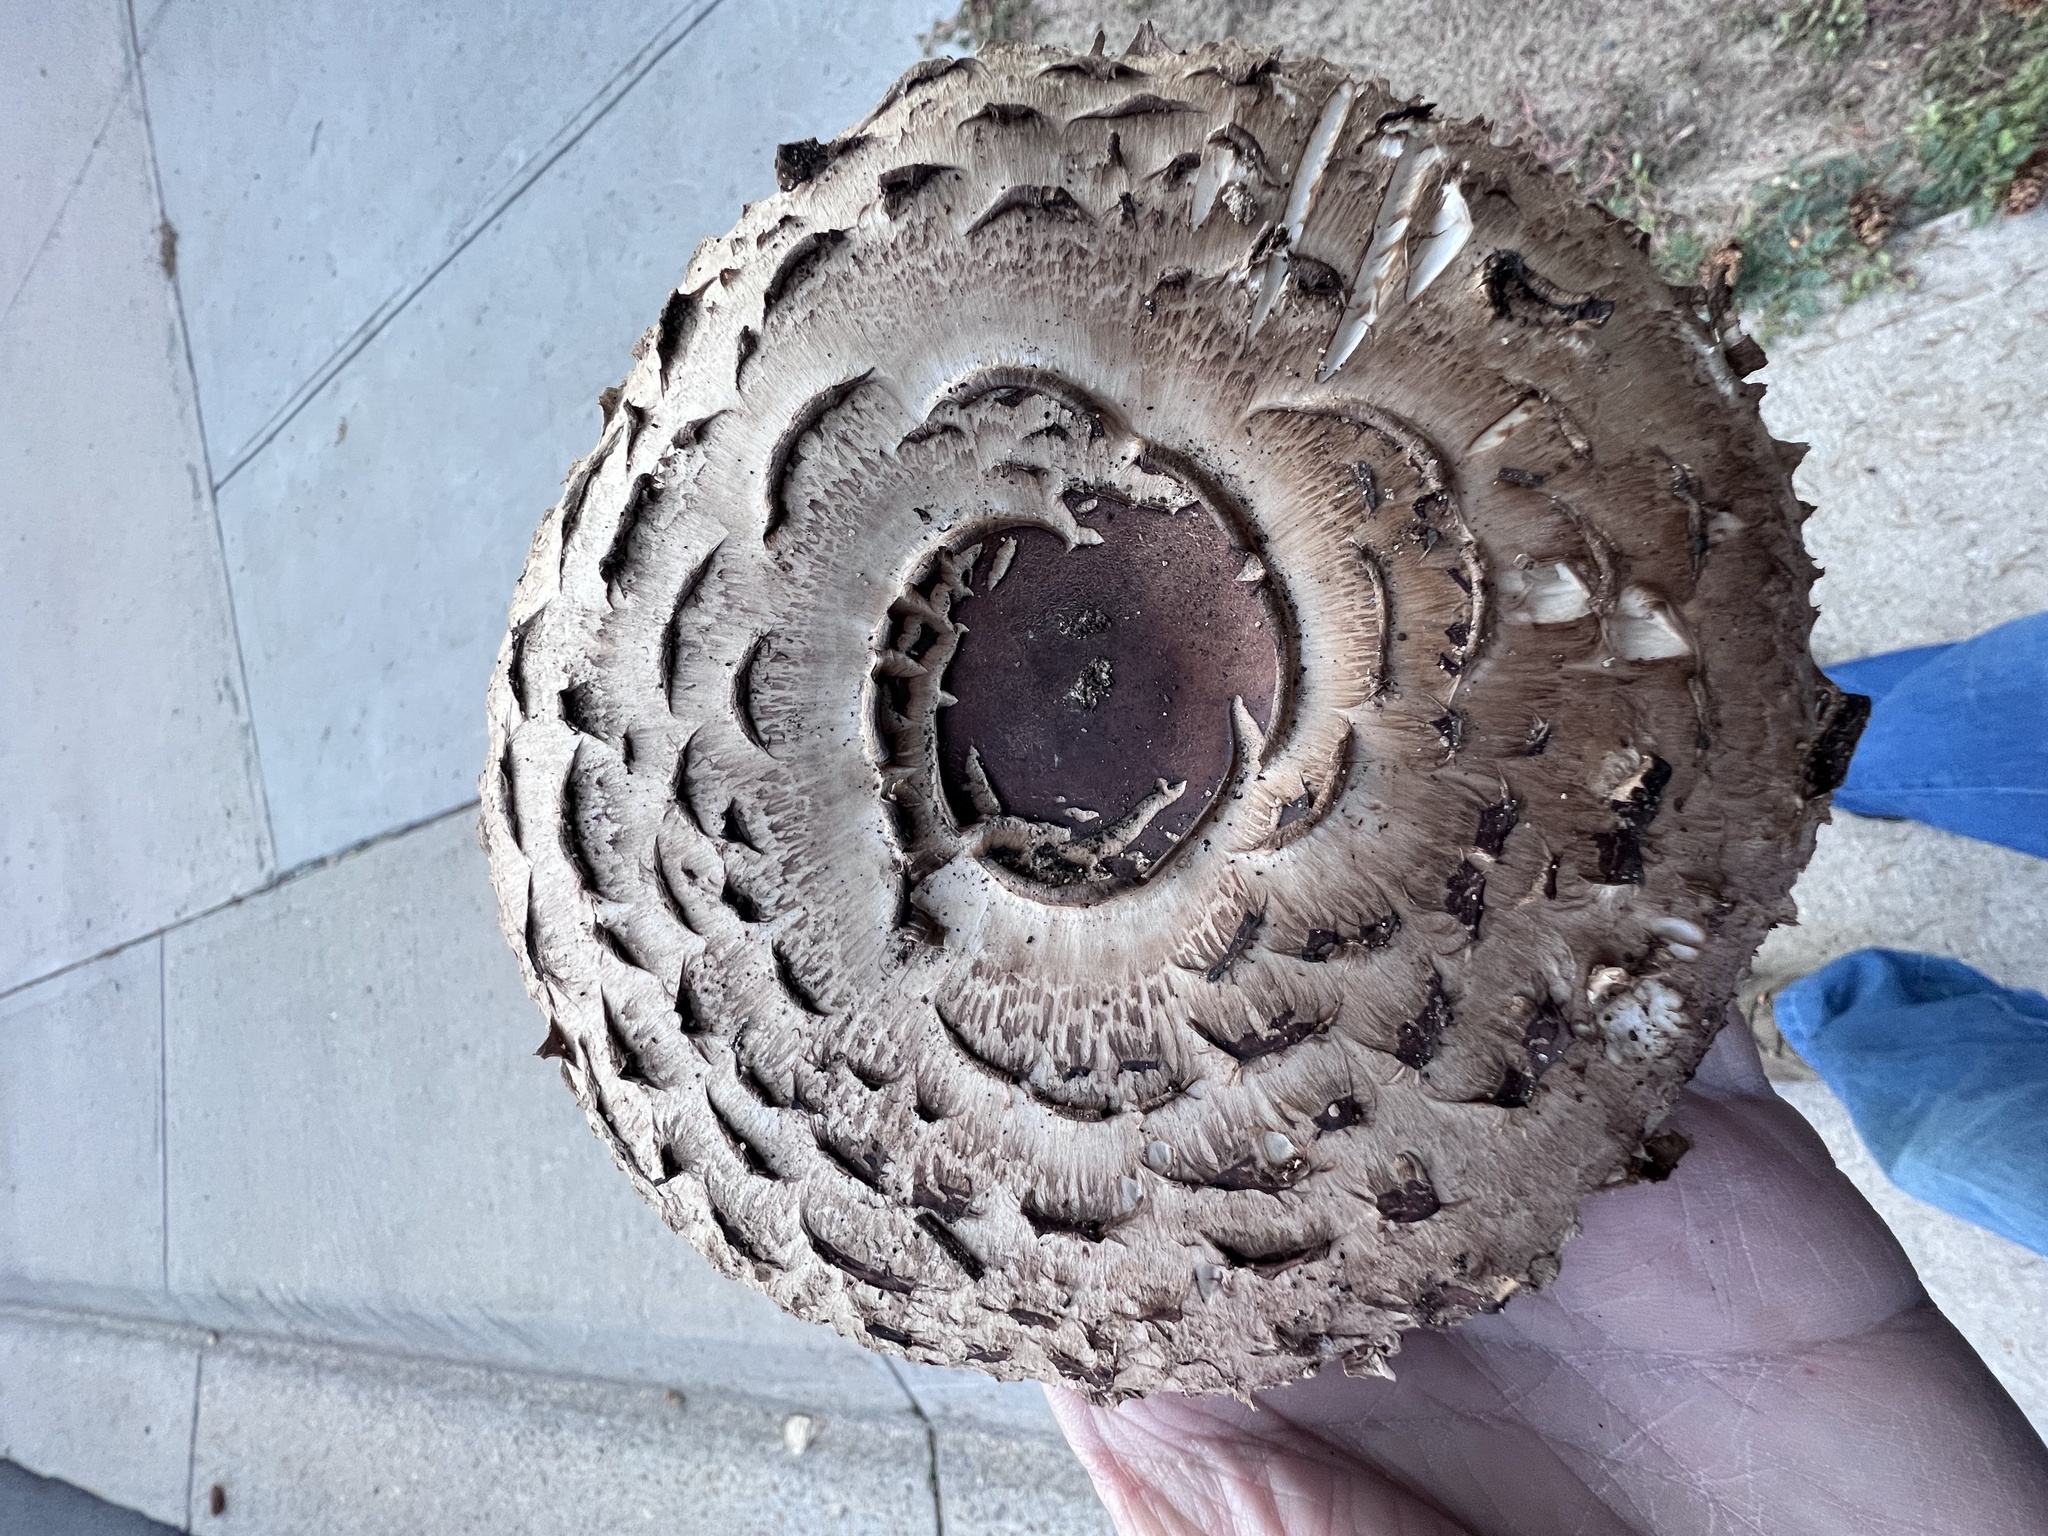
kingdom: Fungi
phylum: Basidiomycota
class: Agaricomycetes
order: Agaricales
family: Agaricaceae
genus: Chlorophyllum
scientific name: Chlorophyllum rhacodes
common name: Shaggy parasol
